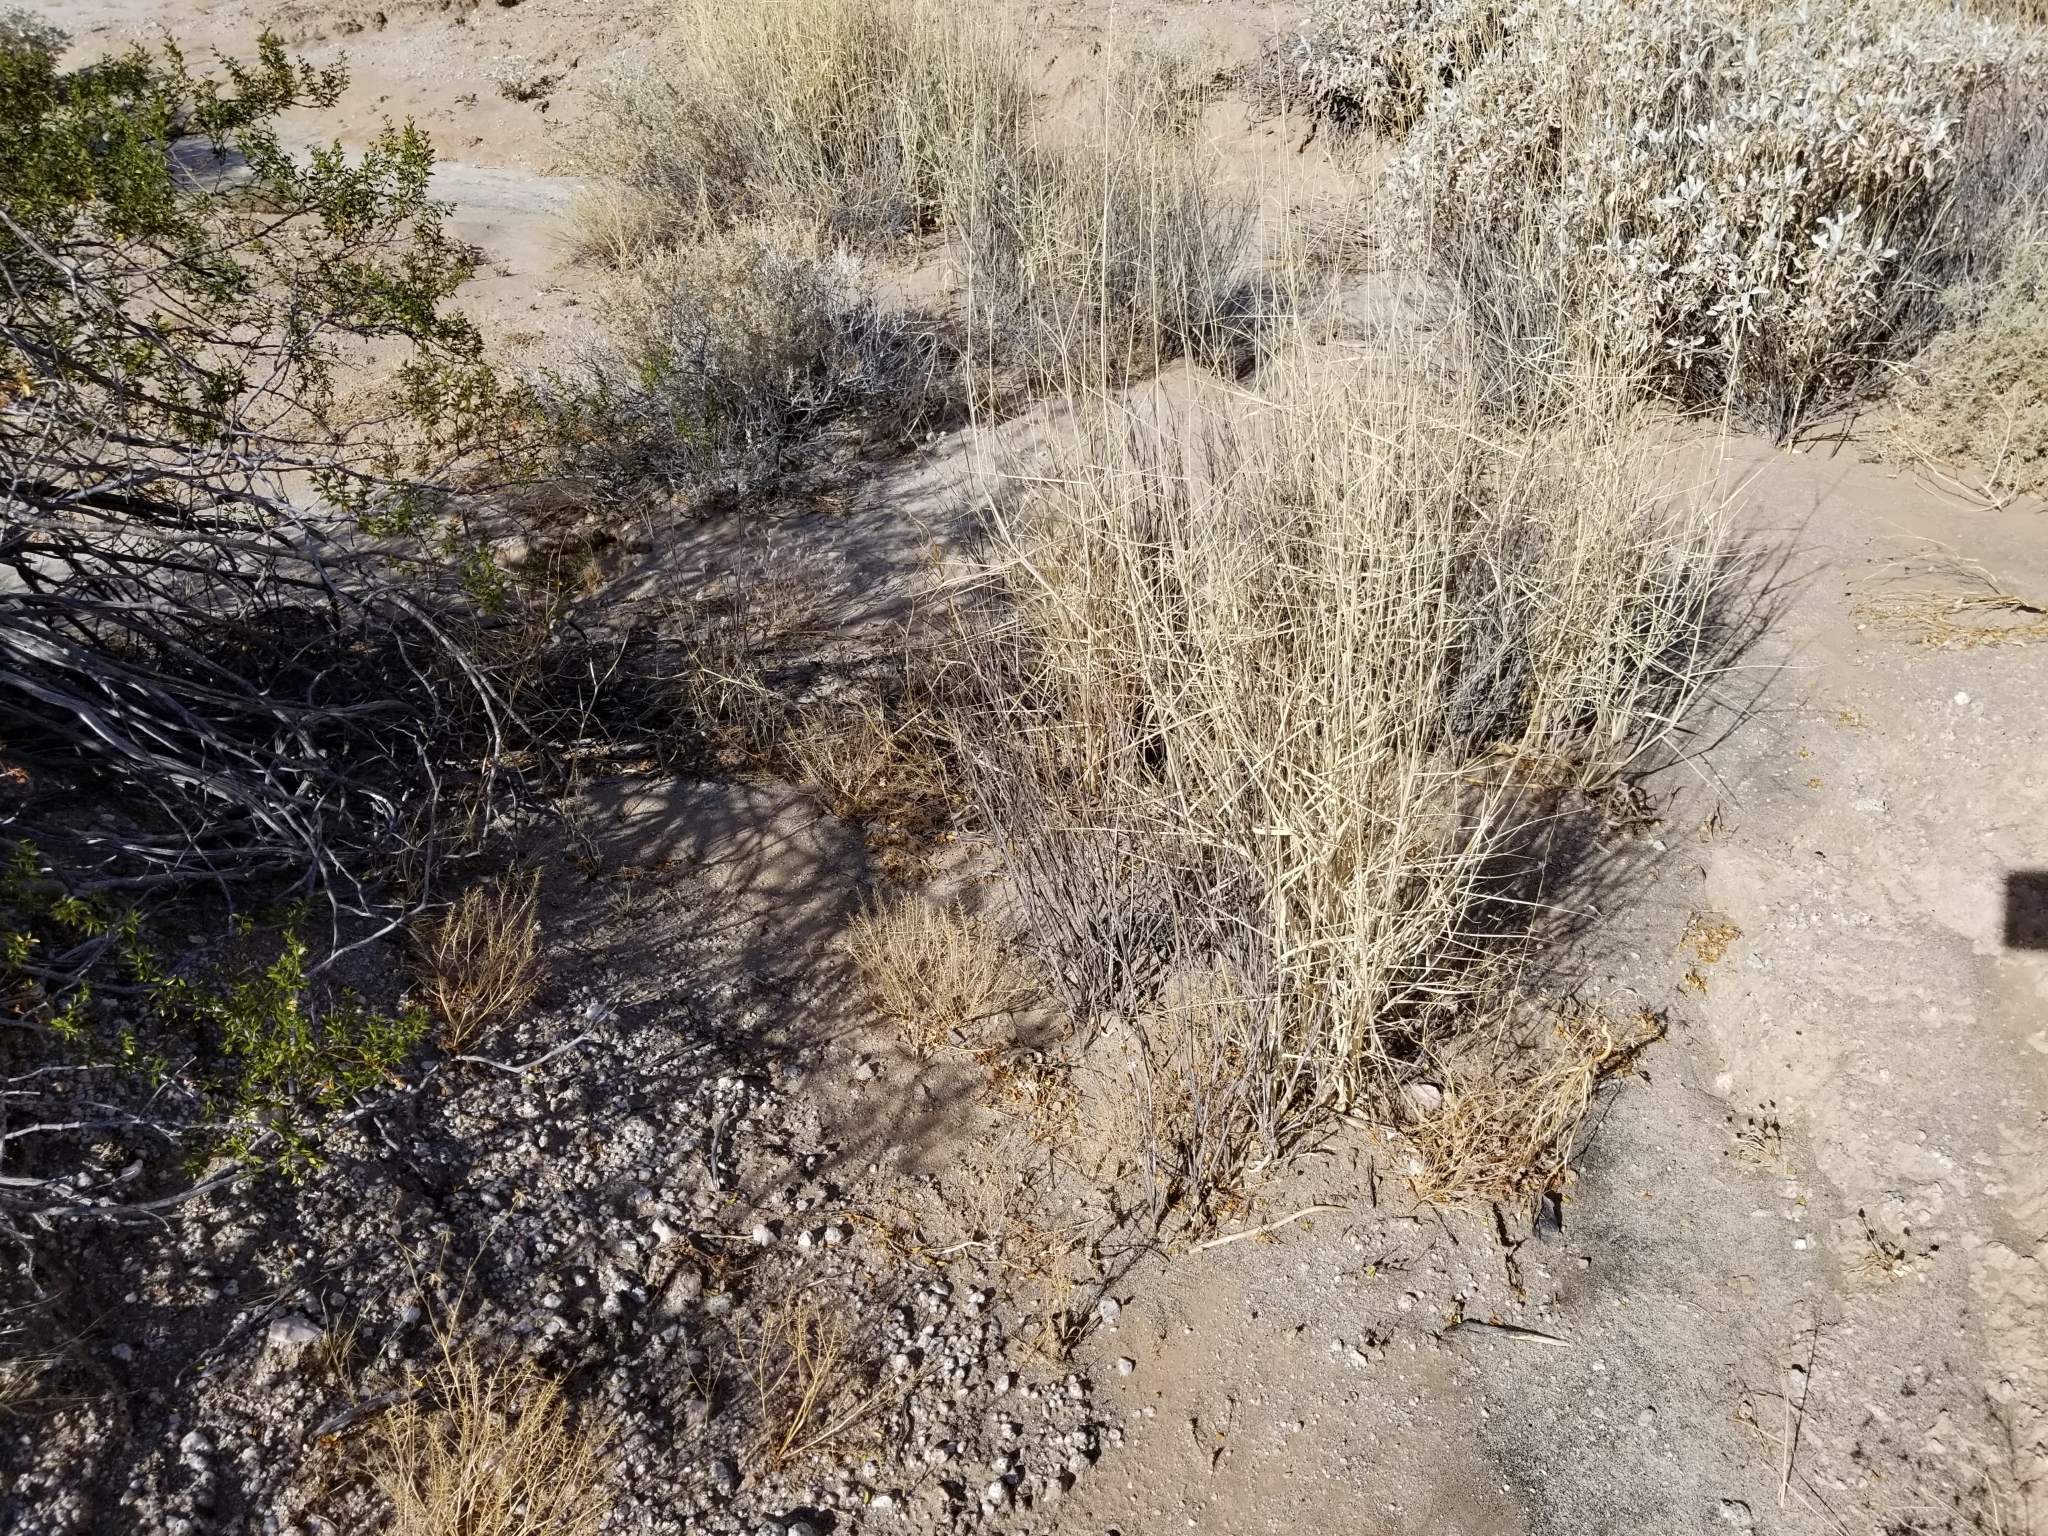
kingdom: Plantae
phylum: Tracheophyta
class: Liliopsida
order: Poales
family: Poaceae
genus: Hilaria
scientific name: Hilaria rigida
